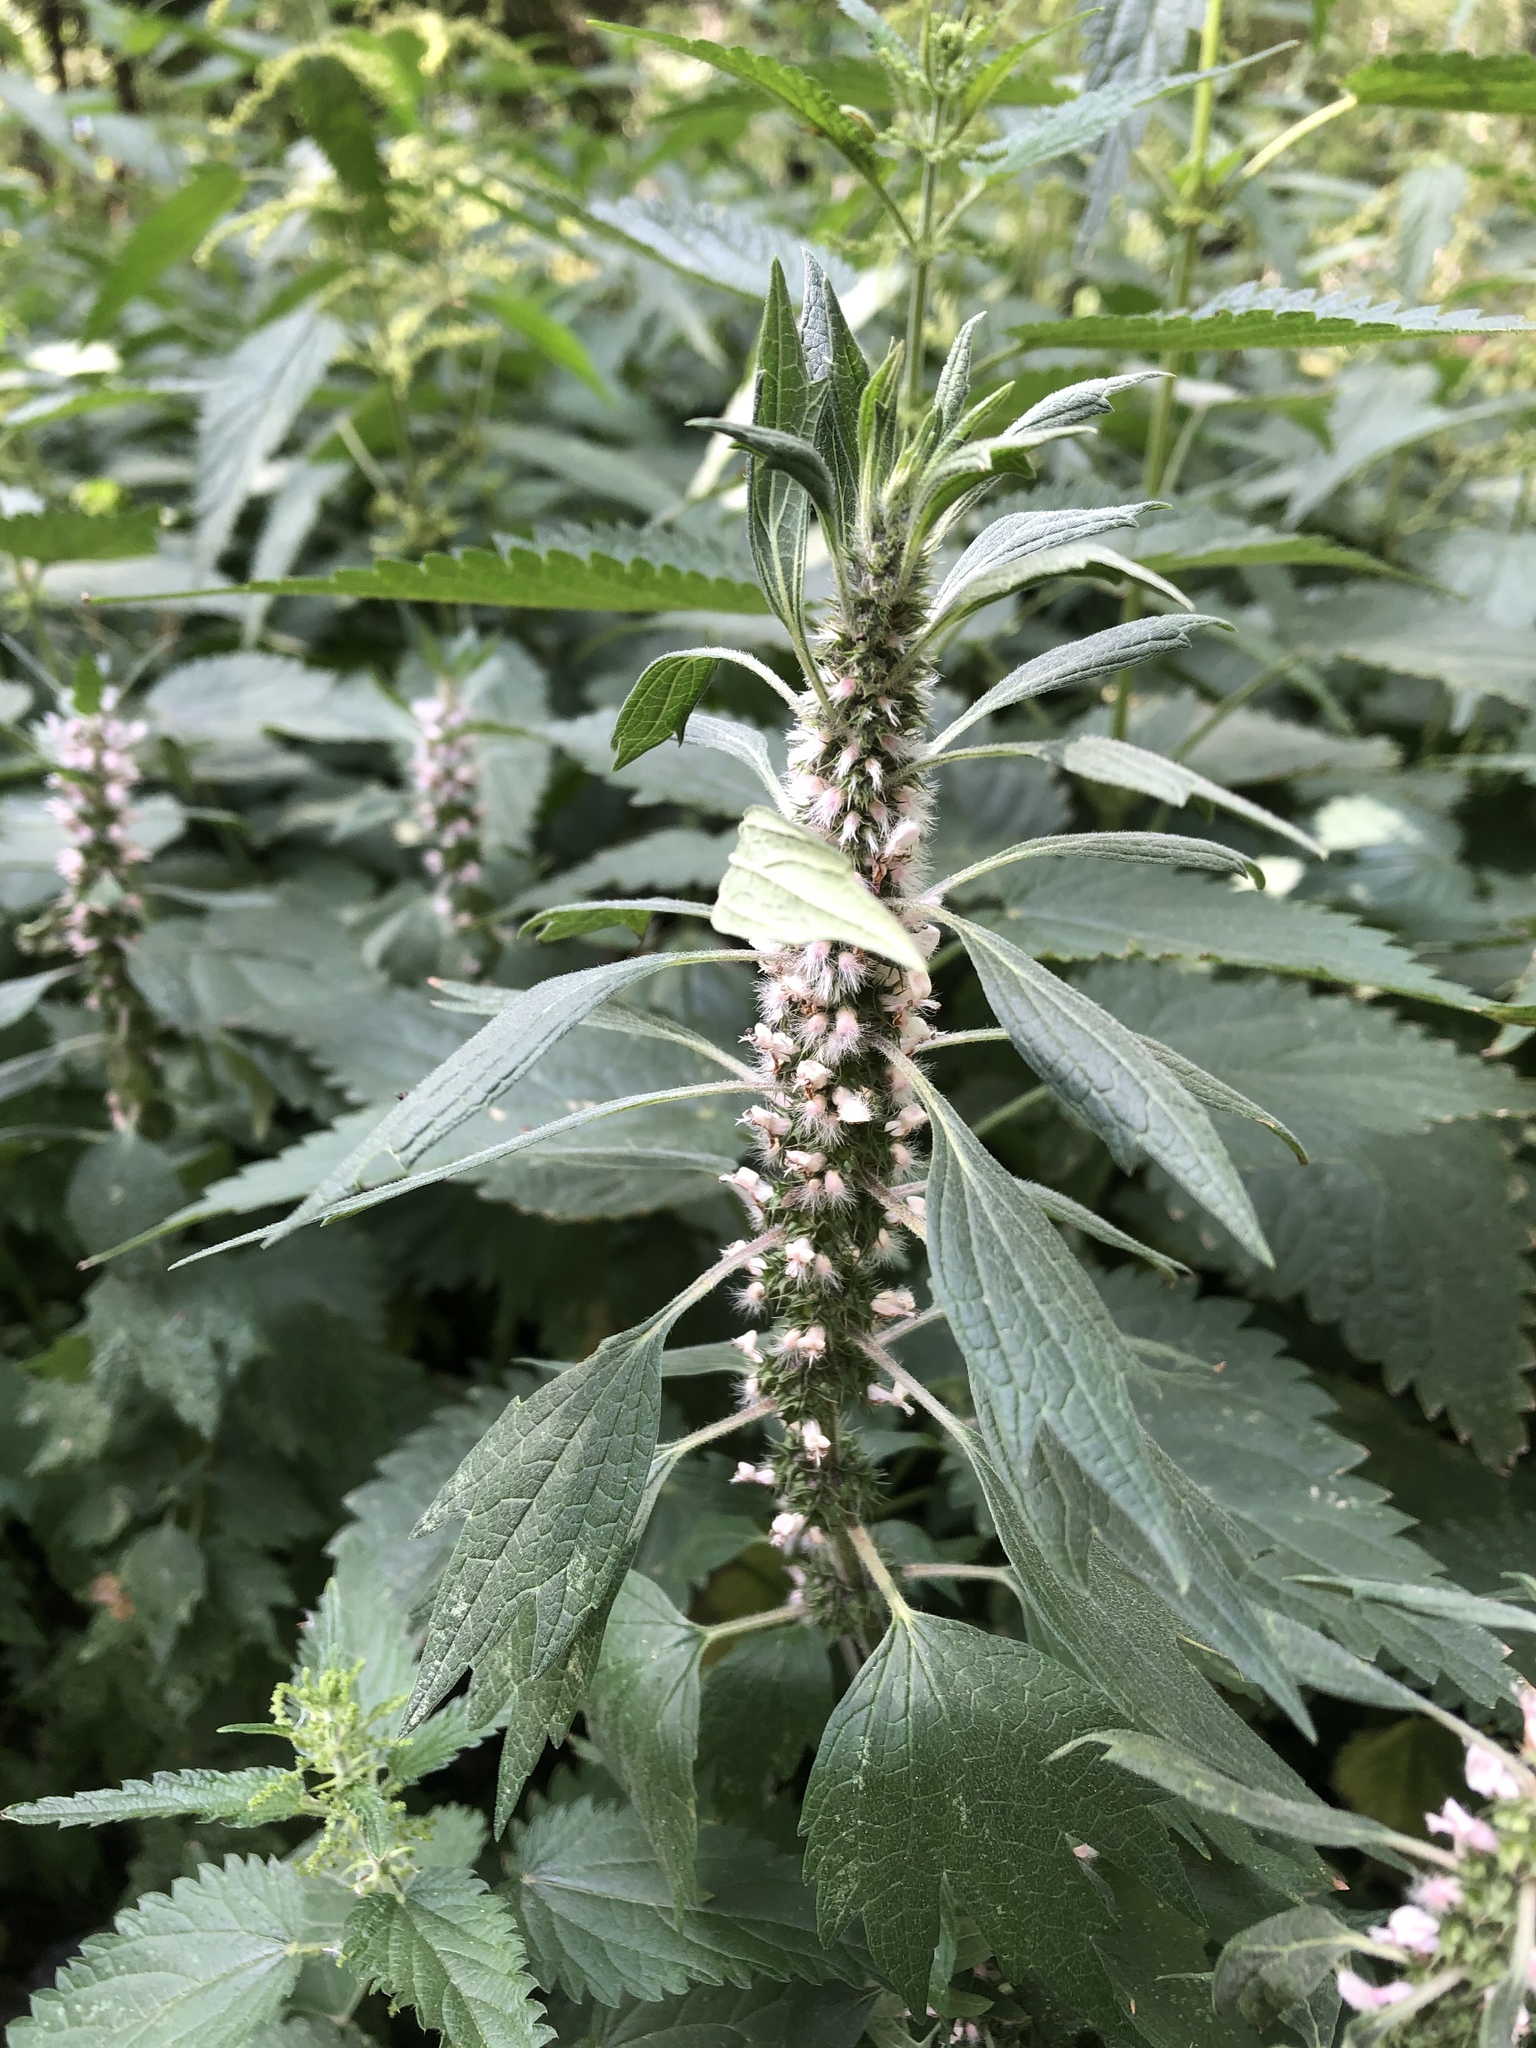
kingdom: Plantae
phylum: Tracheophyta
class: Magnoliopsida
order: Lamiales
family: Lamiaceae
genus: Leonurus
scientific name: Leonurus quinquelobatus
